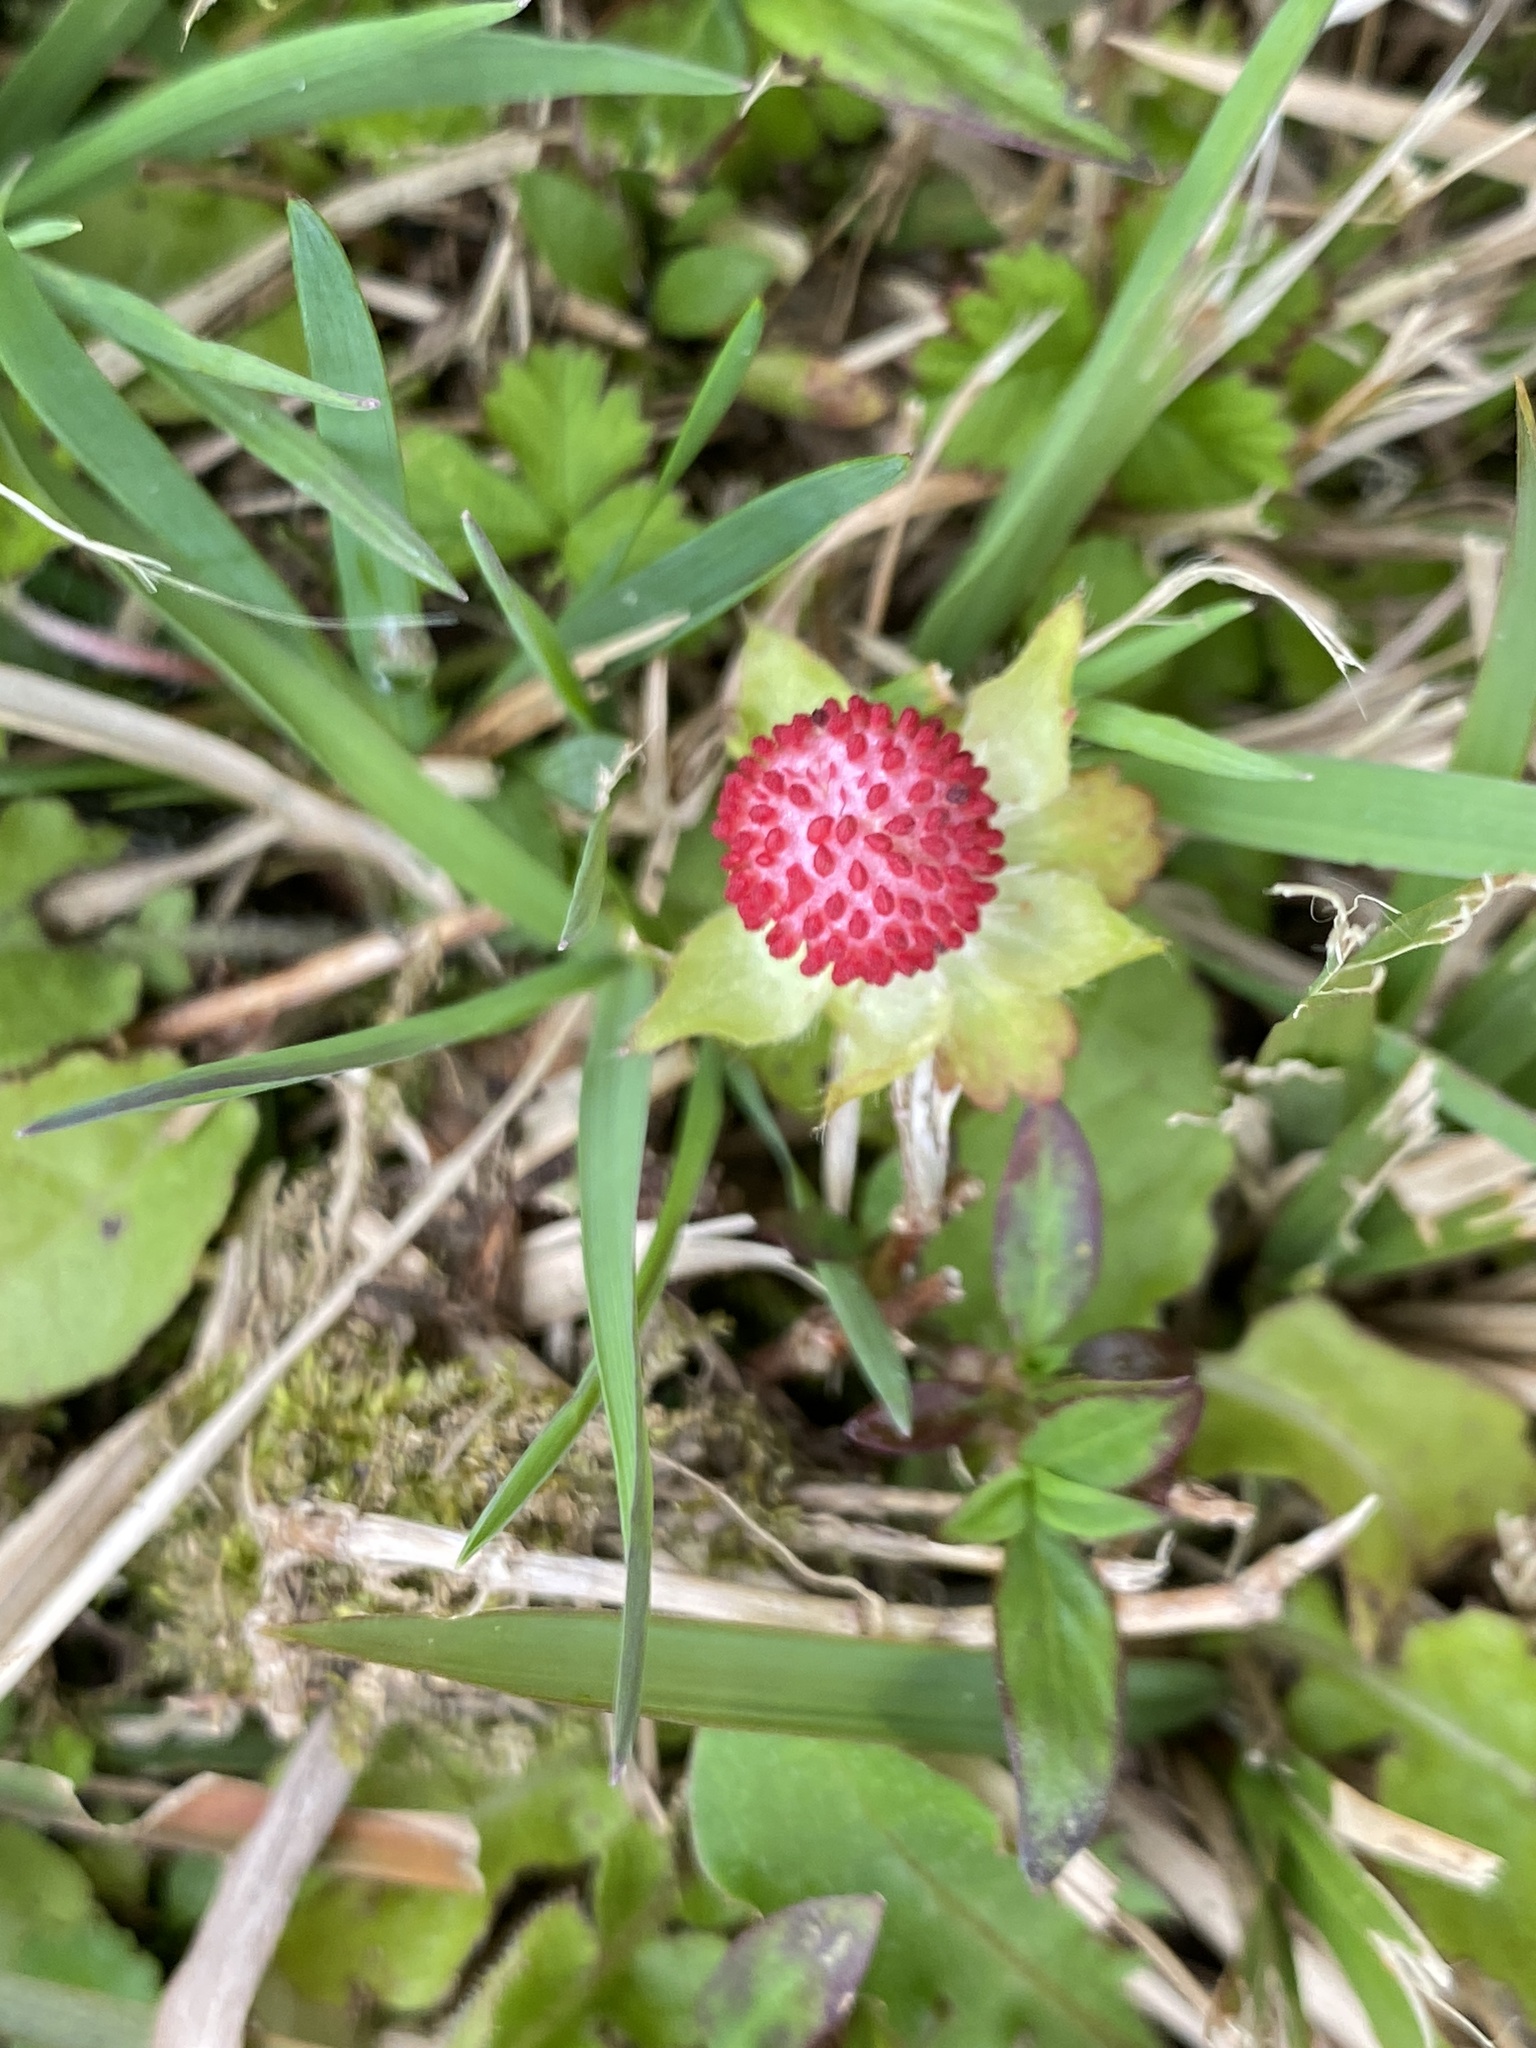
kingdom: Plantae
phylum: Tracheophyta
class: Magnoliopsida
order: Rosales
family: Rosaceae
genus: Potentilla
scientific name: Potentilla wallichiana
